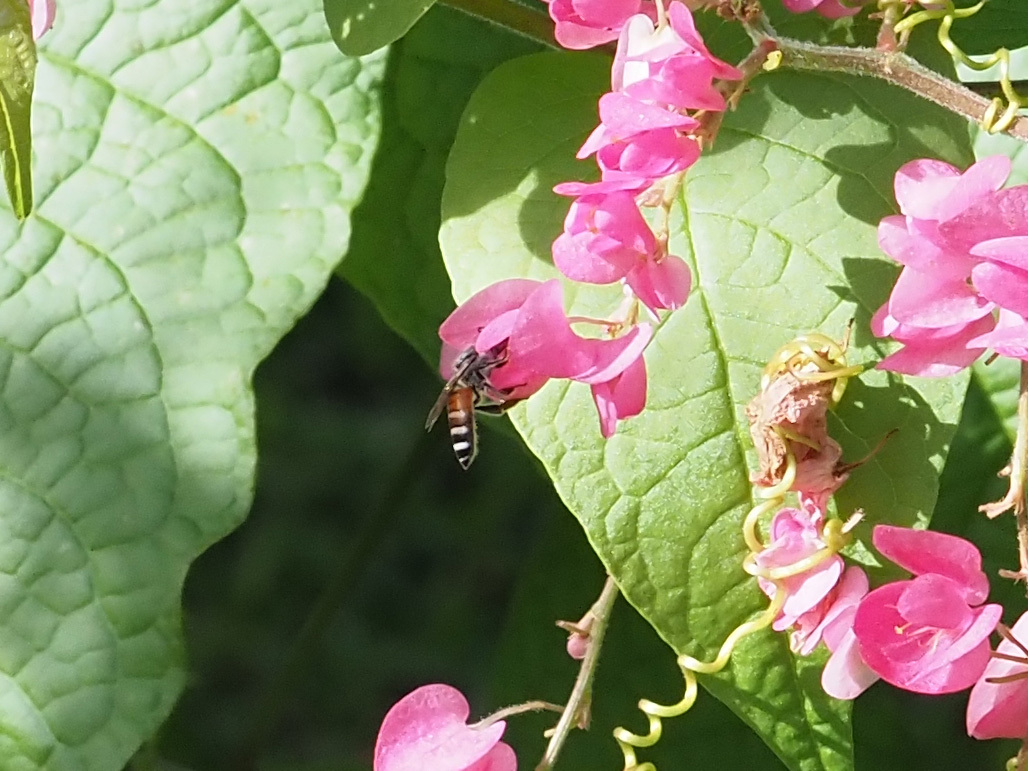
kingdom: Animalia
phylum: Arthropoda
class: Insecta
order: Hymenoptera
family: Apidae
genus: Apis
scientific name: Apis florea
